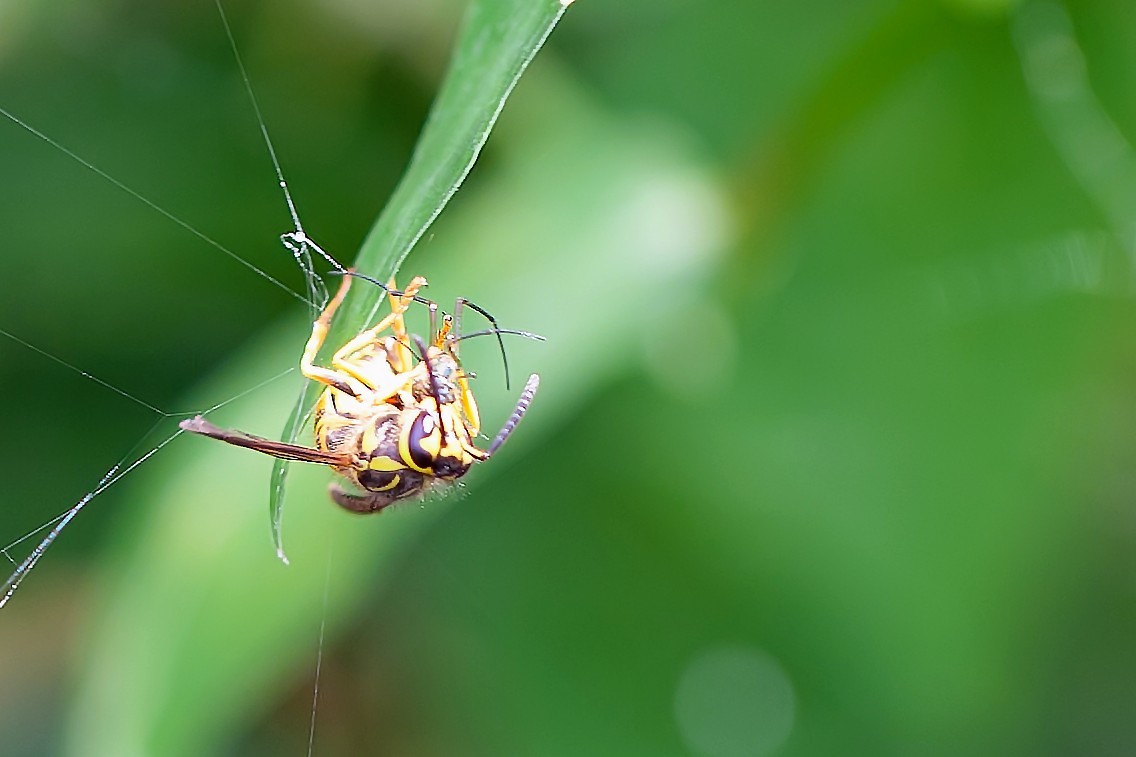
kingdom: Animalia
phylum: Arthropoda
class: Insecta
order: Hymenoptera
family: Vespidae
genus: Vespula
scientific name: Vespula squamosa
